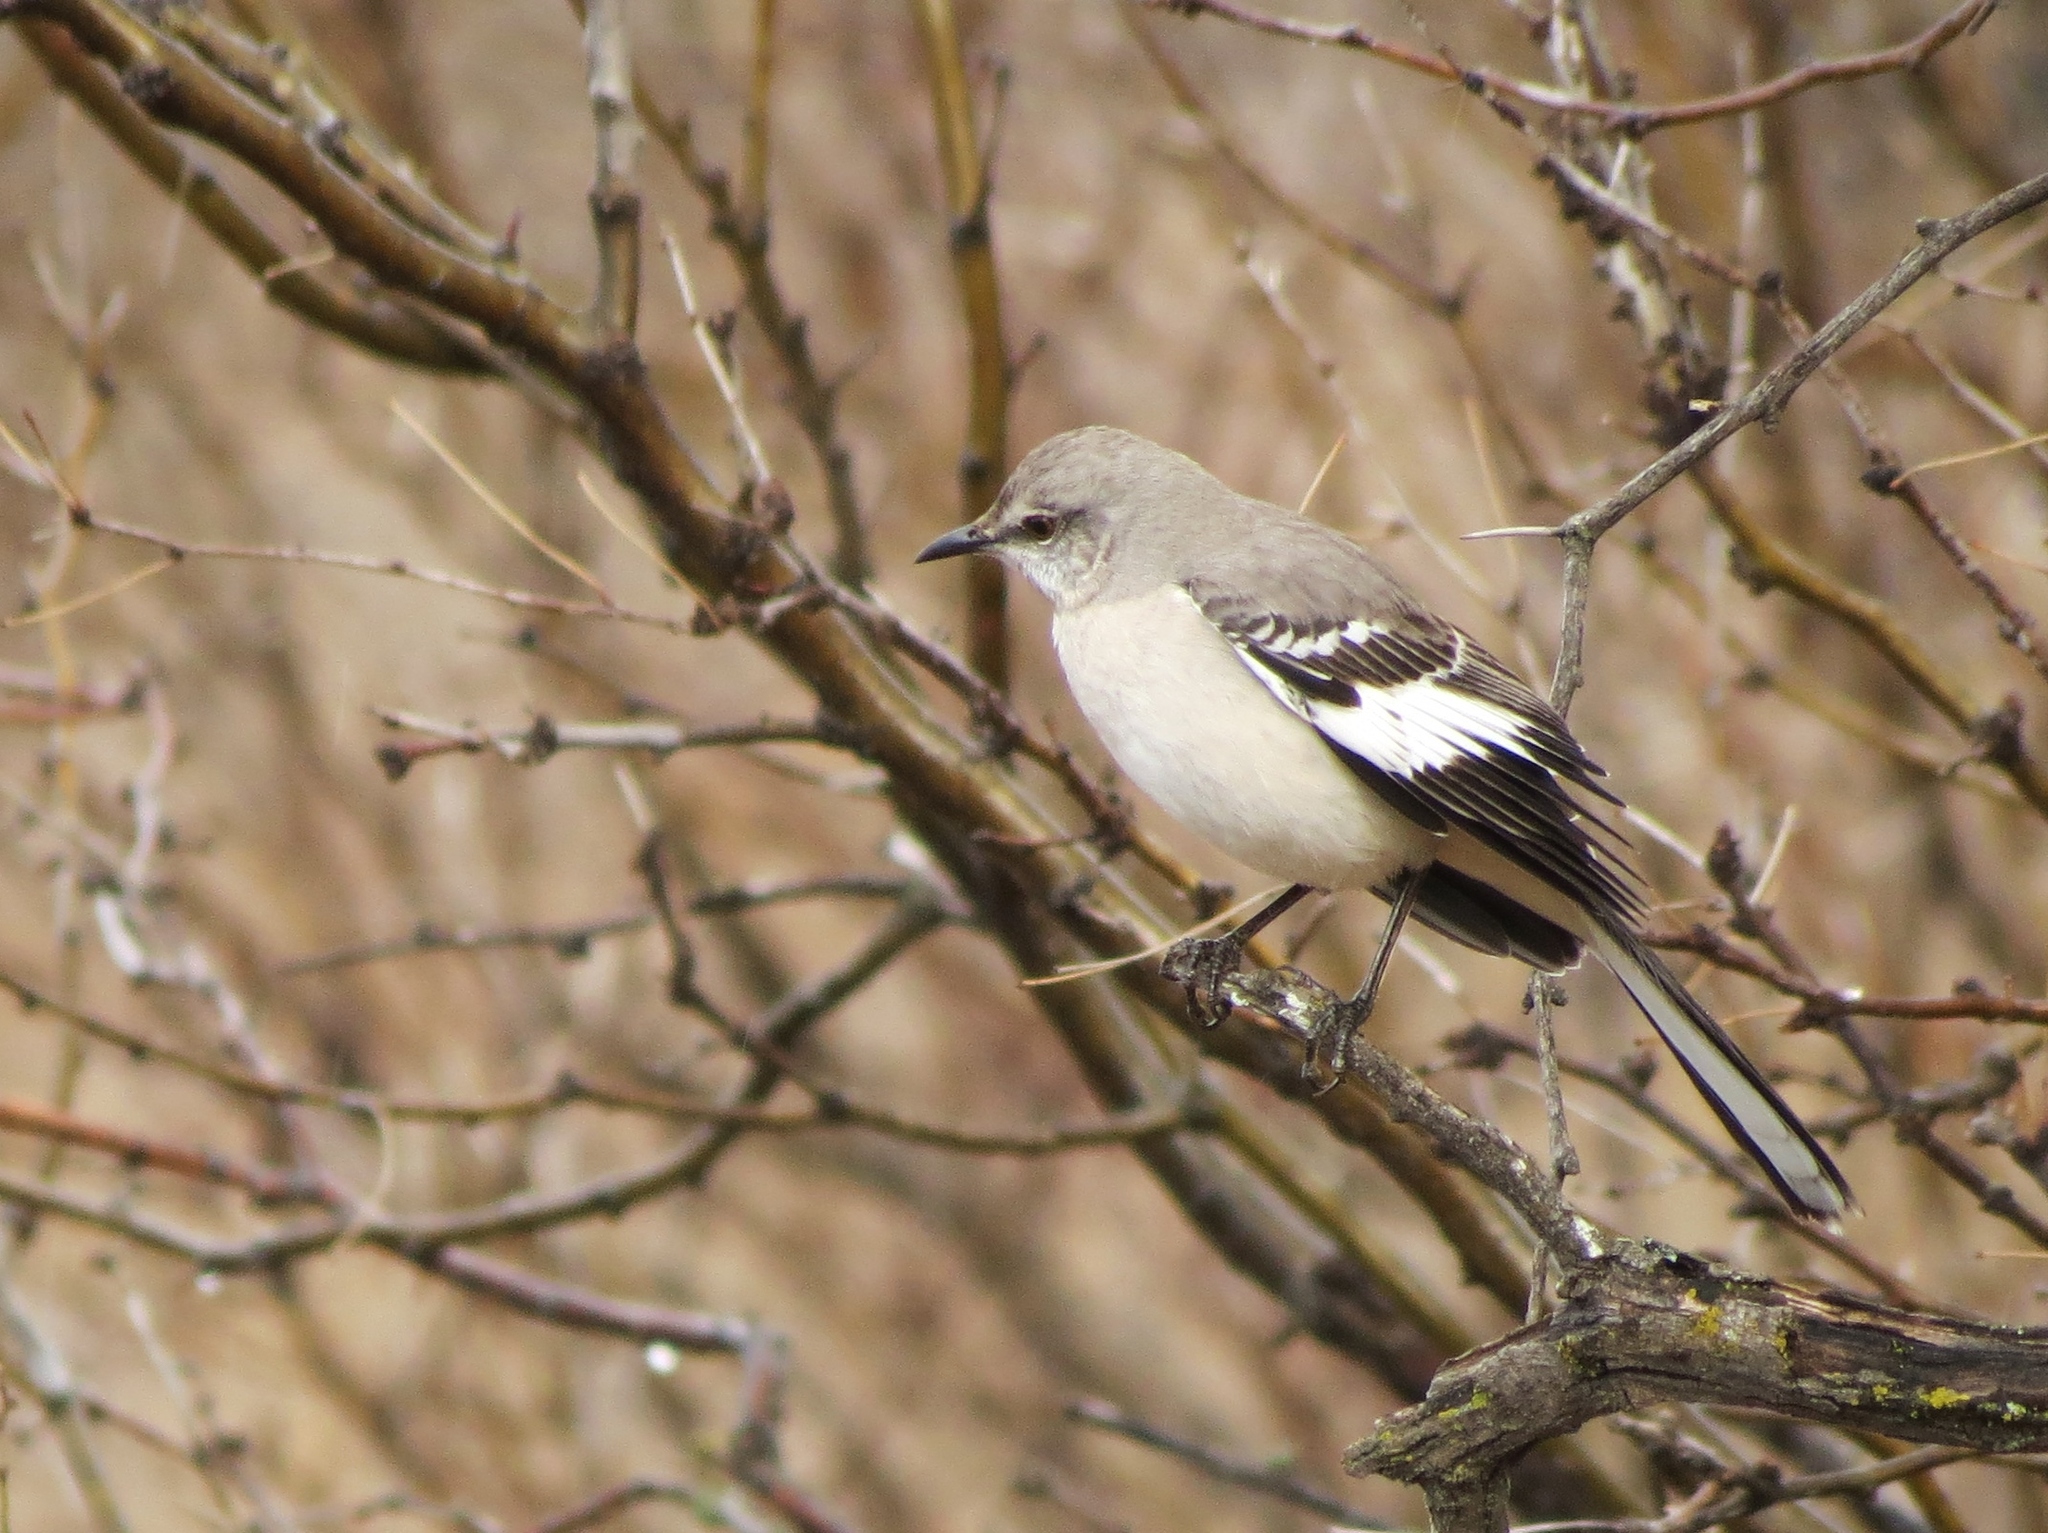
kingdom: Animalia
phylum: Chordata
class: Aves
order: Passeriformes
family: Mimidae
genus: Mimus
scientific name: Mimus polyglottos
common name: Northern mockingbird
